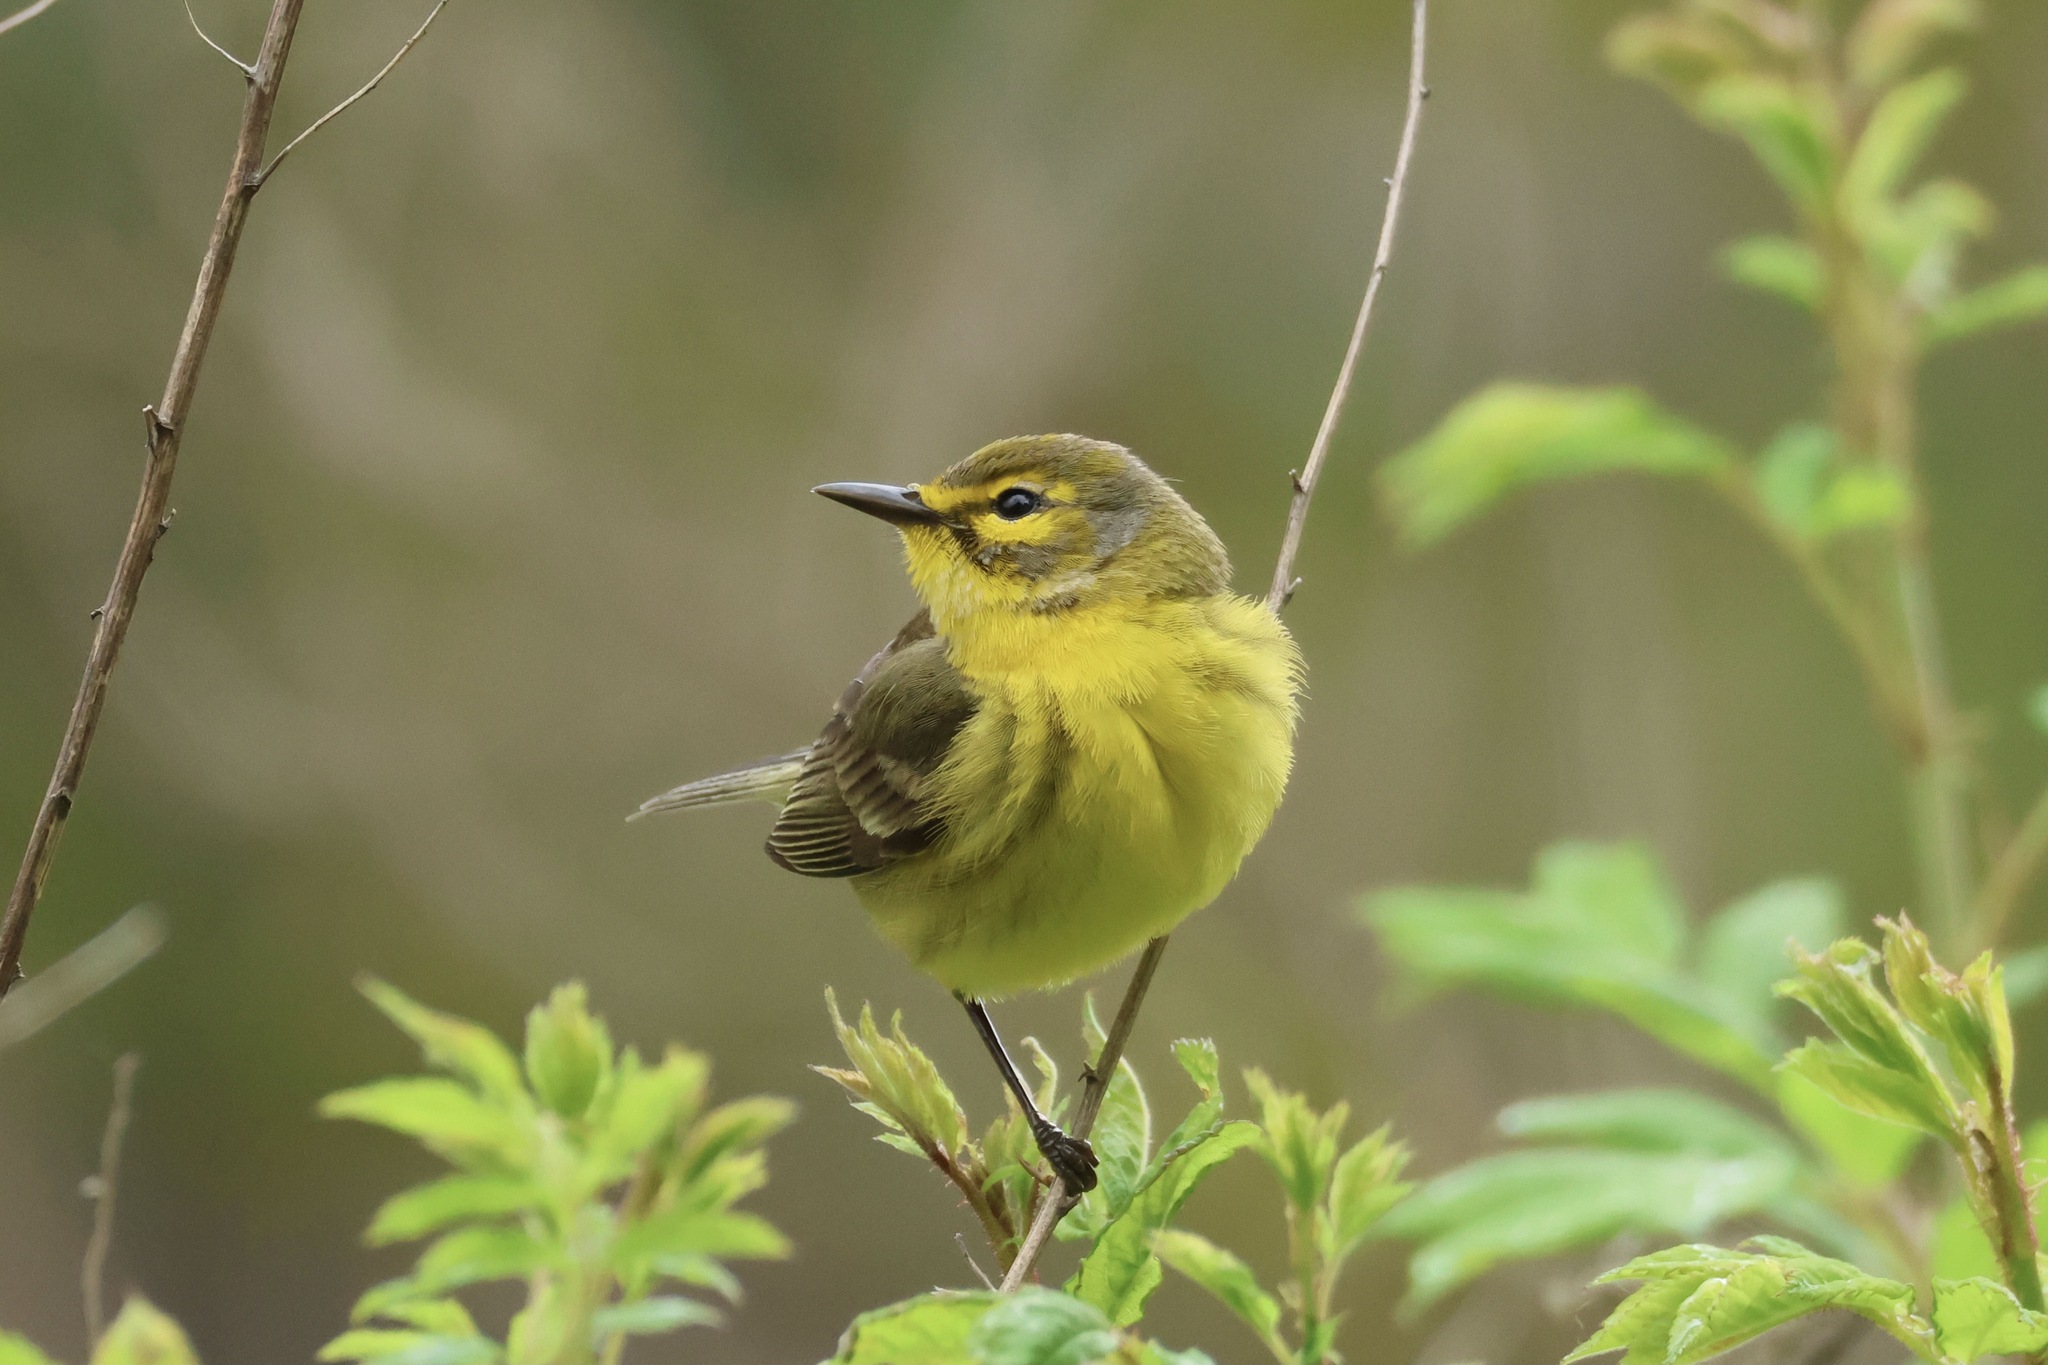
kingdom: Animalia
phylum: Chordata
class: Aves
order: Passeriformes
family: Parulidae
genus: Setophaga
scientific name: Setophaga discolor
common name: Prairie warbler
